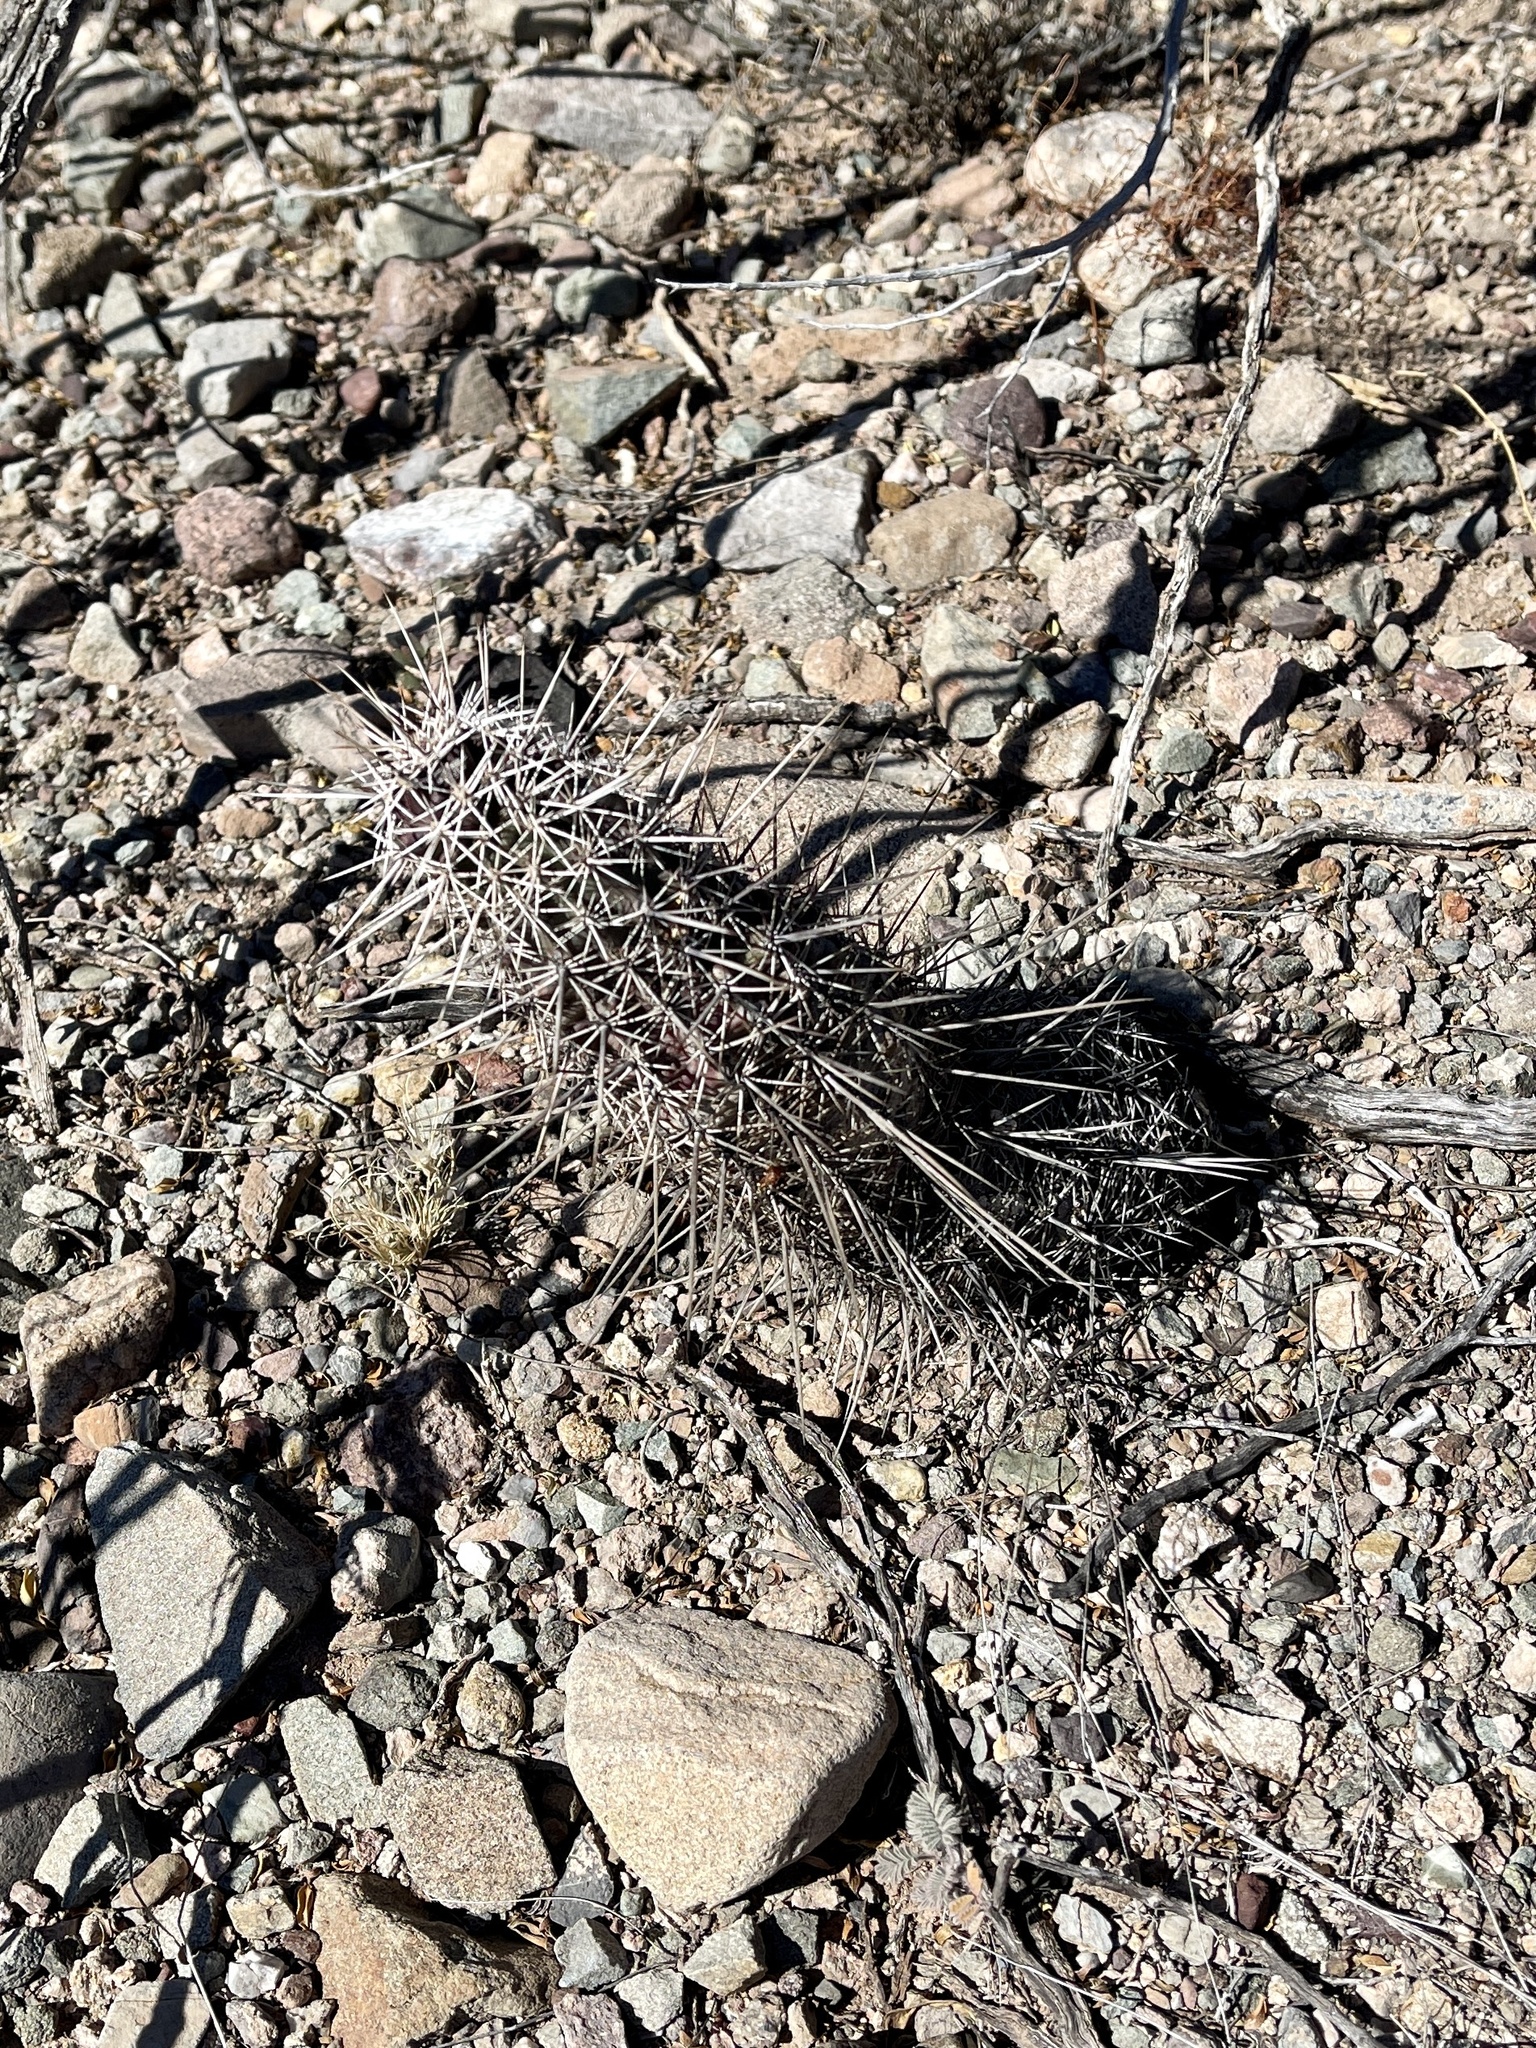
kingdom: Plantae
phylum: Tracheophyta
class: Magnoliopsida
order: Caryophyllales
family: Cactaceae
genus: Echinocereus
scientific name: Echinocereus fasciculatus
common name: Bundle hedgehog
